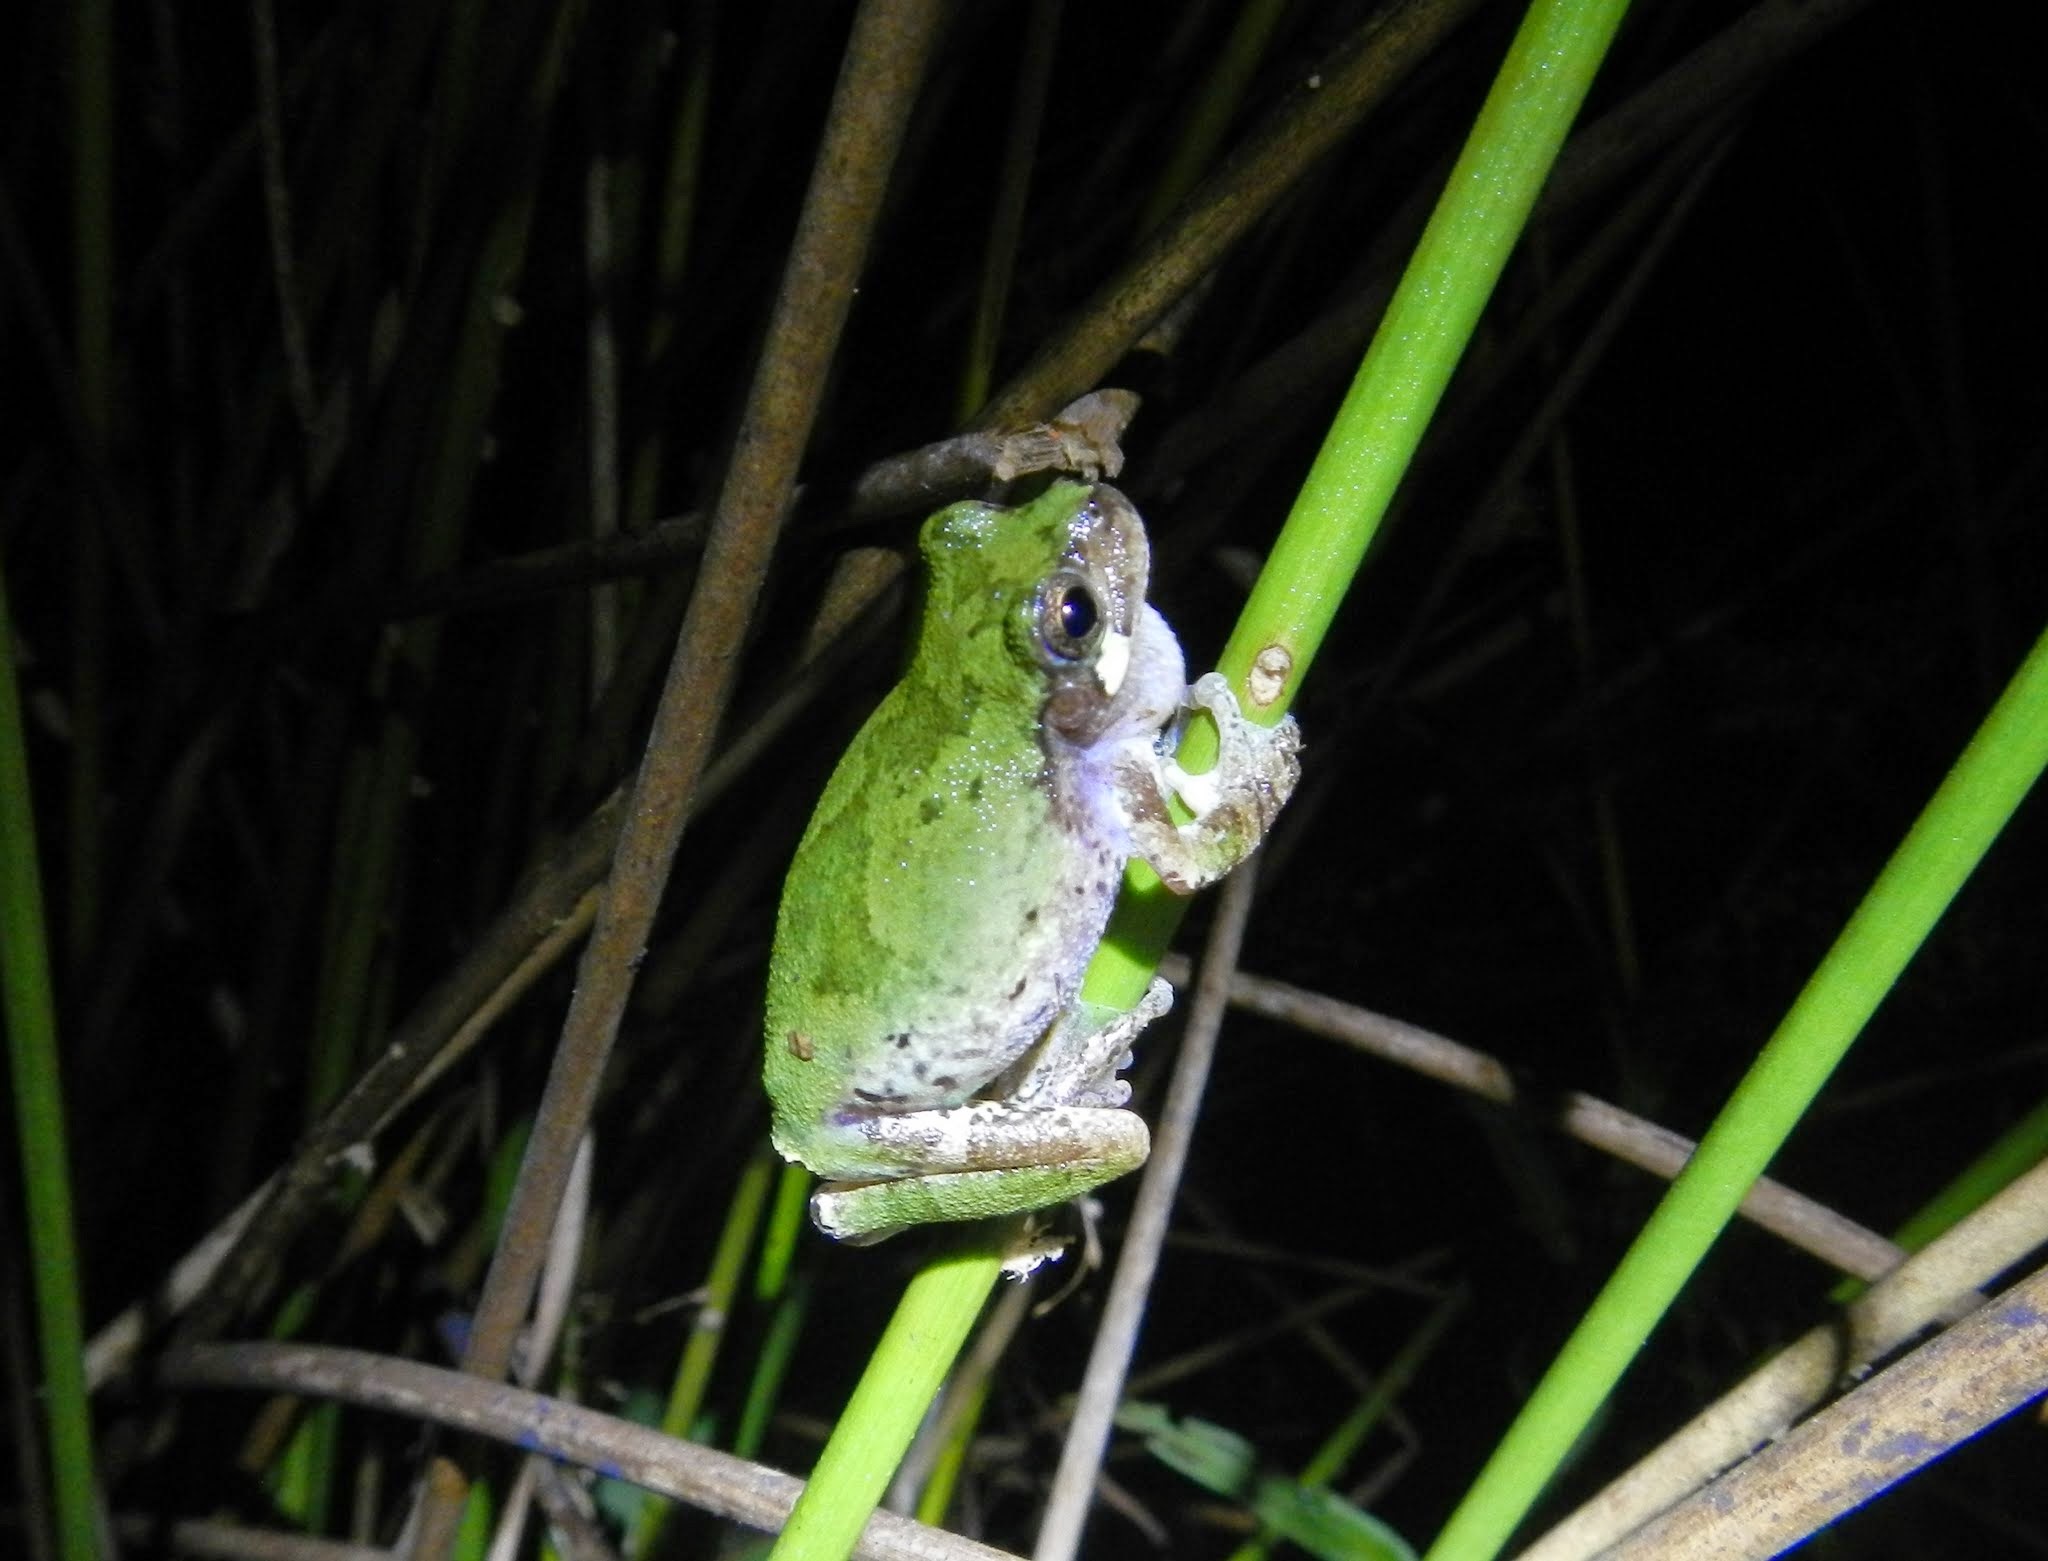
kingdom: Animalia
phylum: Chordata
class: Amphibia
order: Anura
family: Hylidae
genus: Dryophytes
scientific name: Dryophytes avivoca
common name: Bird-voiced treefrog
